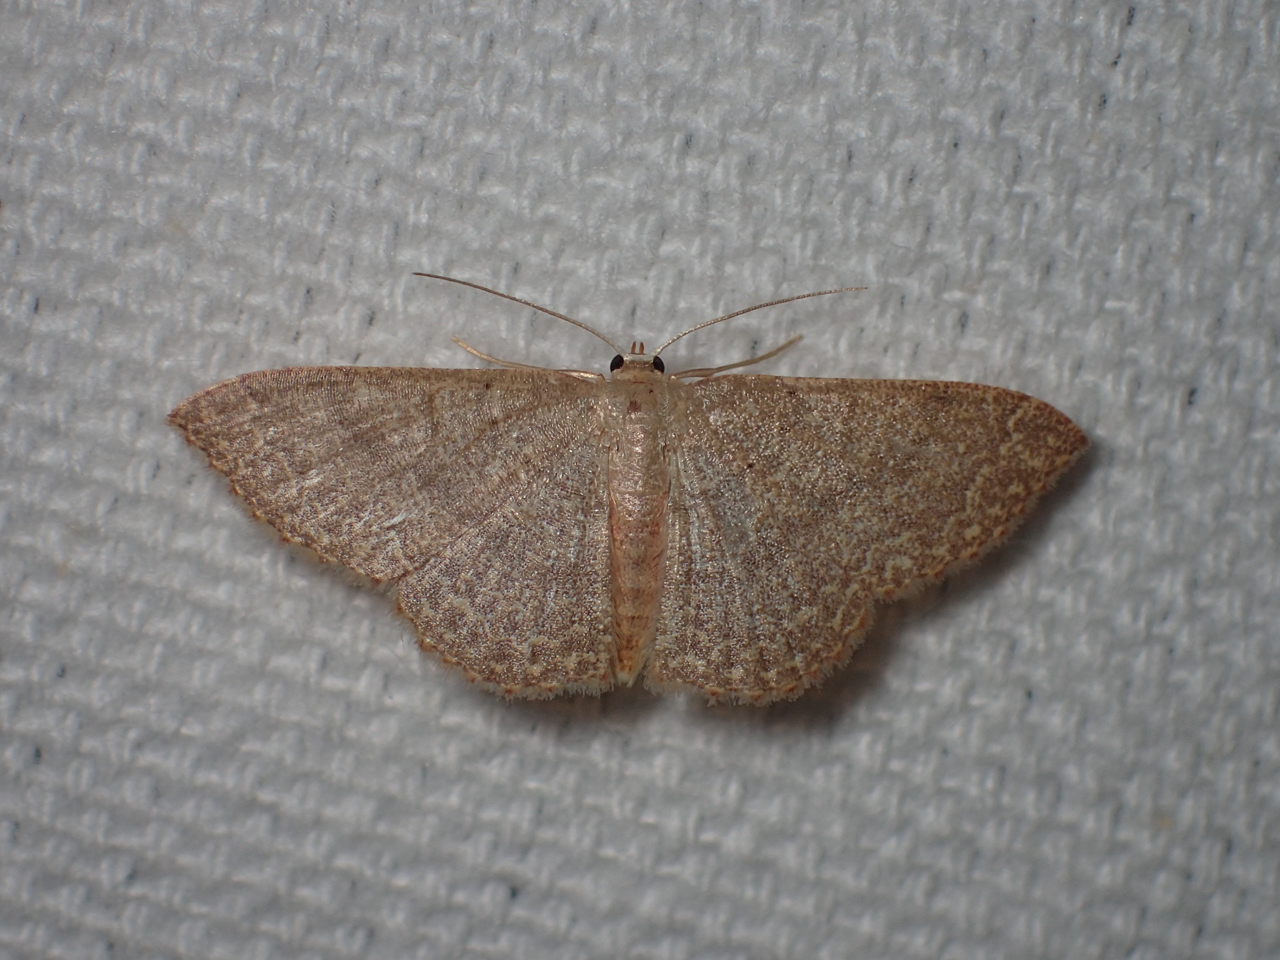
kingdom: Animalia
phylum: Arthropoda
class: Insecta
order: Lepidoptera
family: Geometridae
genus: Pleuroprucha
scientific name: Pleuroprucha insulsaria
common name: Common tan wave
